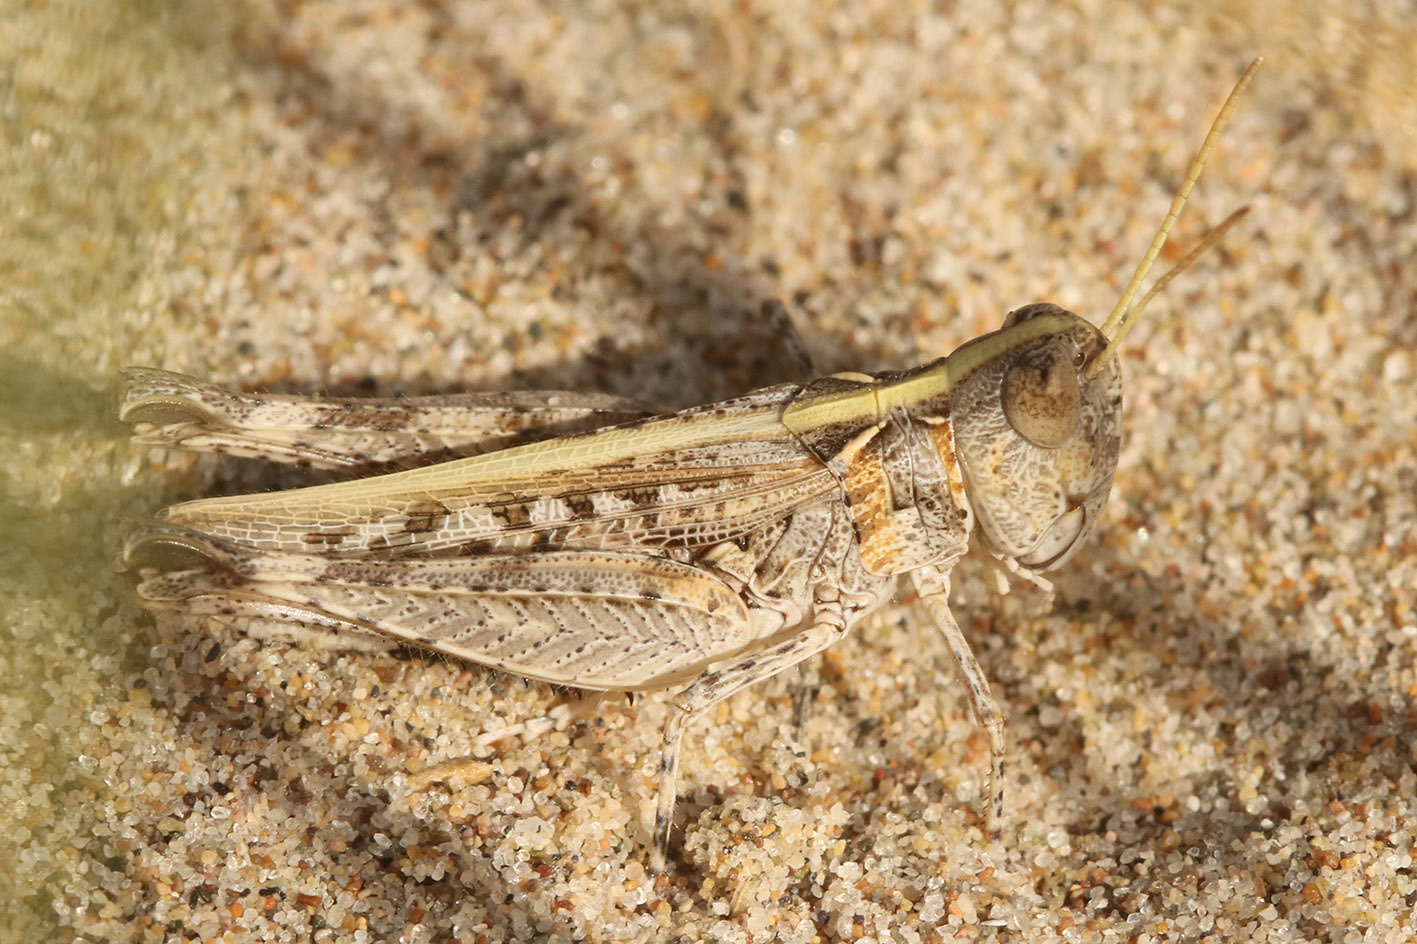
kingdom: Animalia
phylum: Arthropoda
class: Insecta
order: Orthoptera
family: Acrididae
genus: Borellia
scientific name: Borellia bruneri
